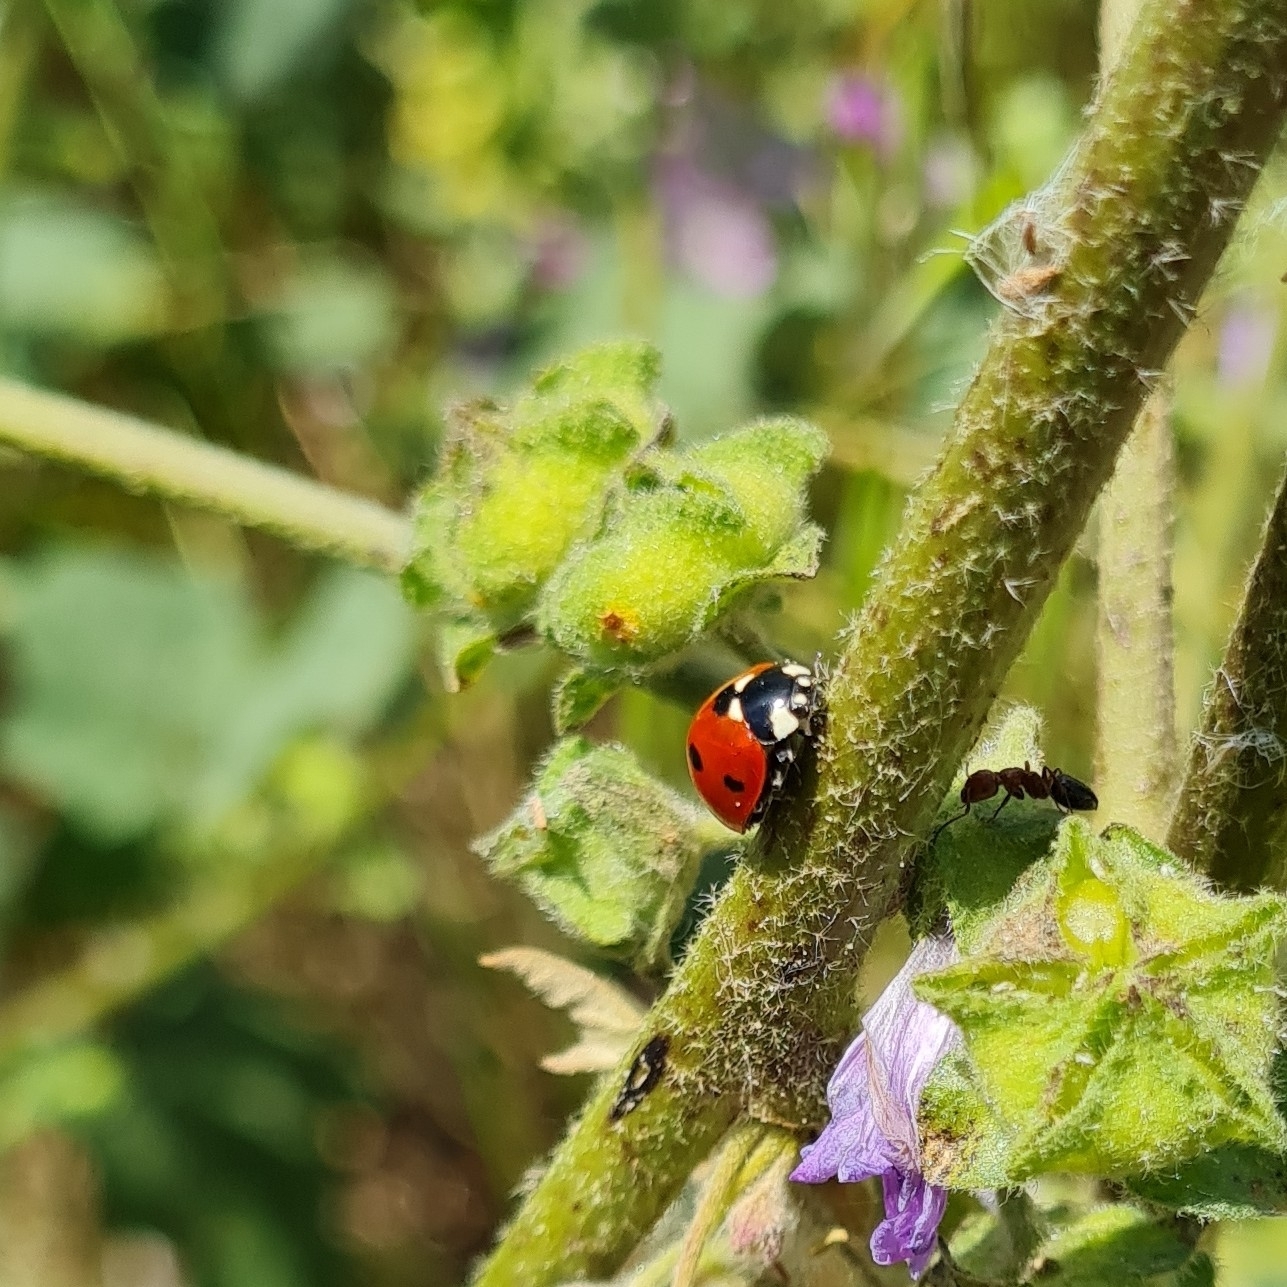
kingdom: Animalia
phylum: Arthropoda
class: Insecta
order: Coleoptera
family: Coccinellidae
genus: Coccinella
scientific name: Coccinella septempunctata
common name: Sevenspotted lady beetle
